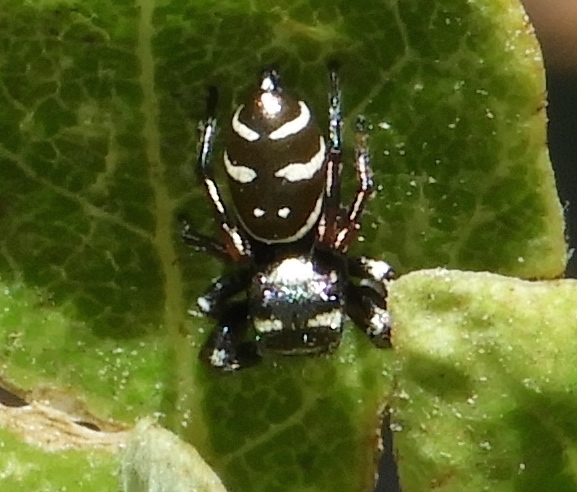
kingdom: Animalia
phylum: Arthropoda
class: Arachnida
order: Araneae
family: Salticidae
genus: Sassacus
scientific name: Sassacus
